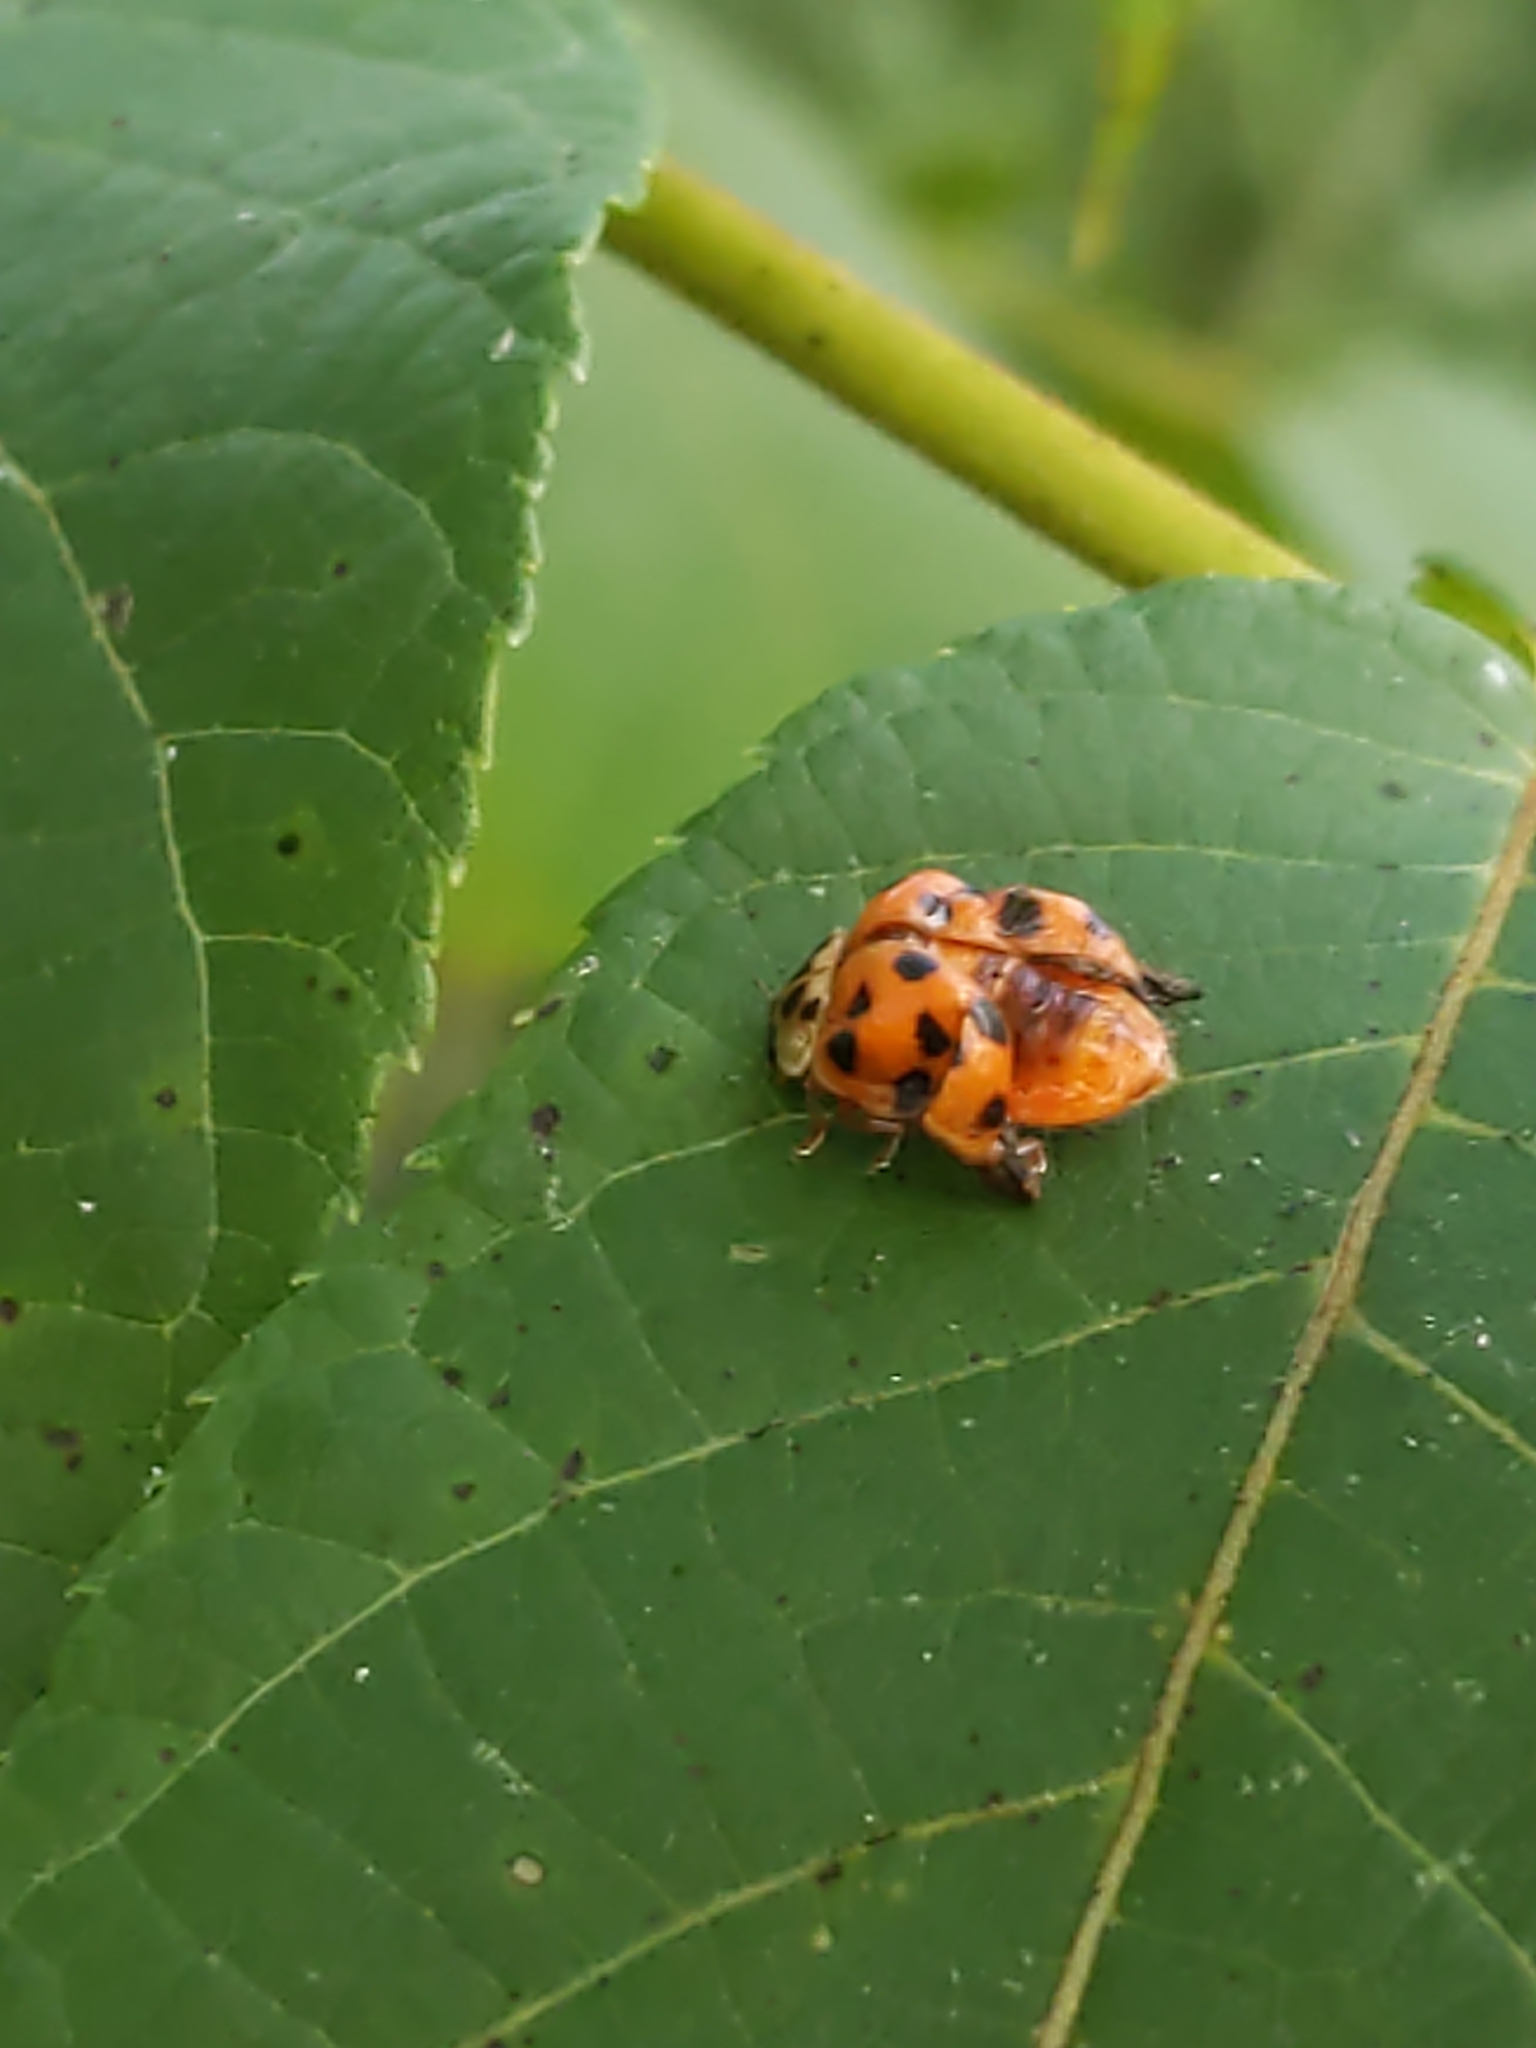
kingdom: Animalia
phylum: Arthropoda
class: Insecta
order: Coleoptera
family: Coccinellidae
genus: Harmonia
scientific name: Harmonia axyridis
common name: Harlequin ladybird
